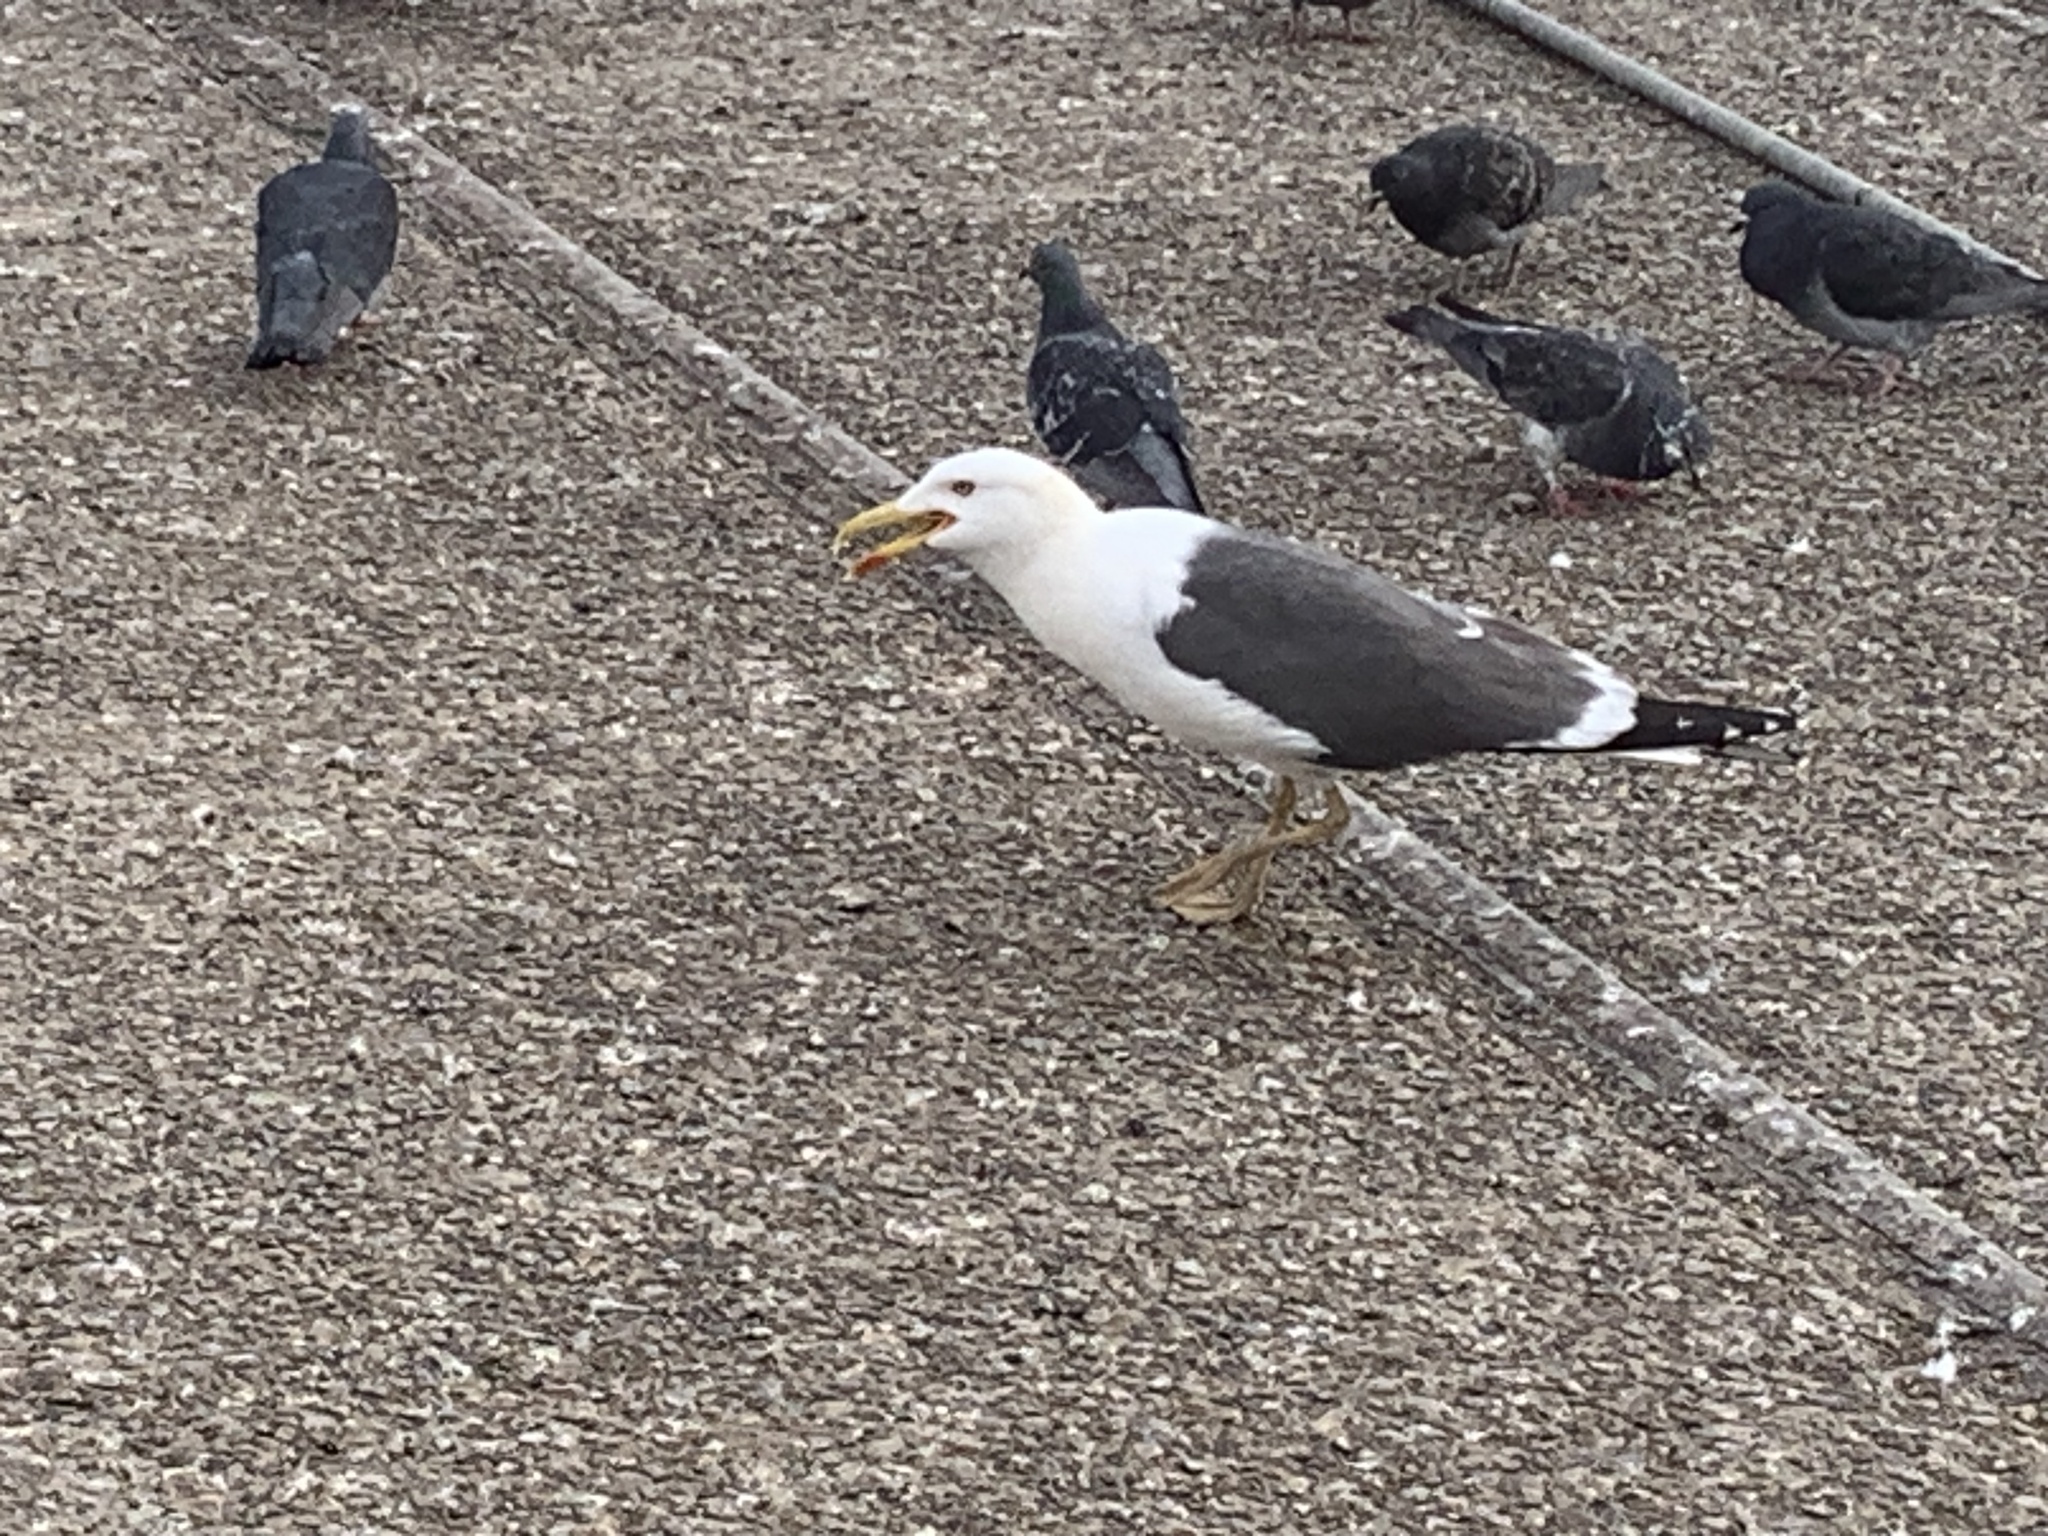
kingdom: Animalia
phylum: Chordata
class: Aves
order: Charadriiformes
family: Laridae
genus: Larus
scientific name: Larus fuscus
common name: Lesser black-backed gull
